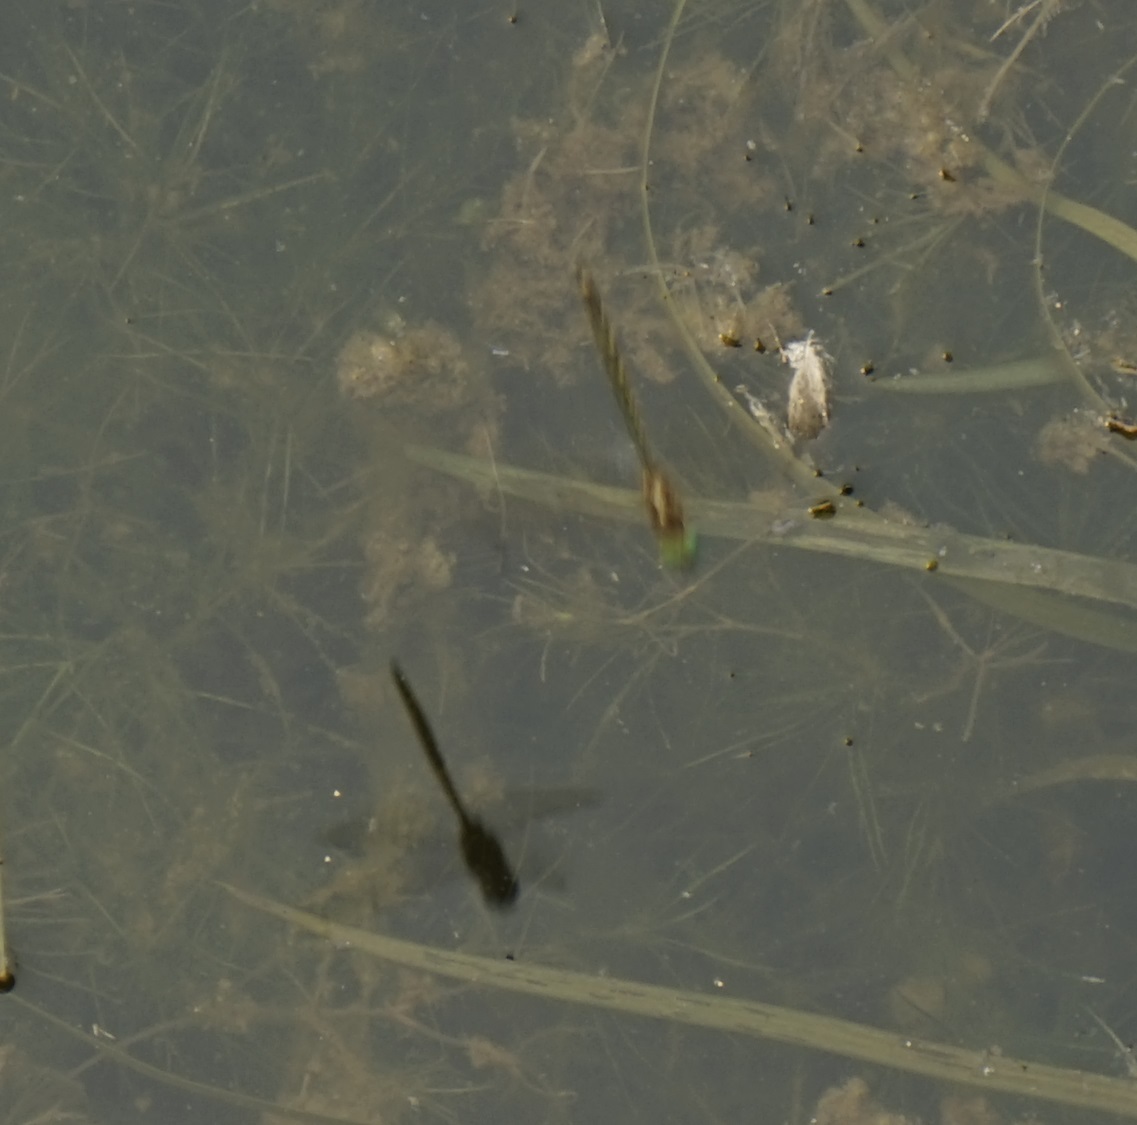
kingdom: Animalia
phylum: Arthropoda
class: Insecta
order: Odonata
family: Corduliidae
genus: Hemicordulia
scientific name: Hemicordulia australiae
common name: Sentry dragonfly
